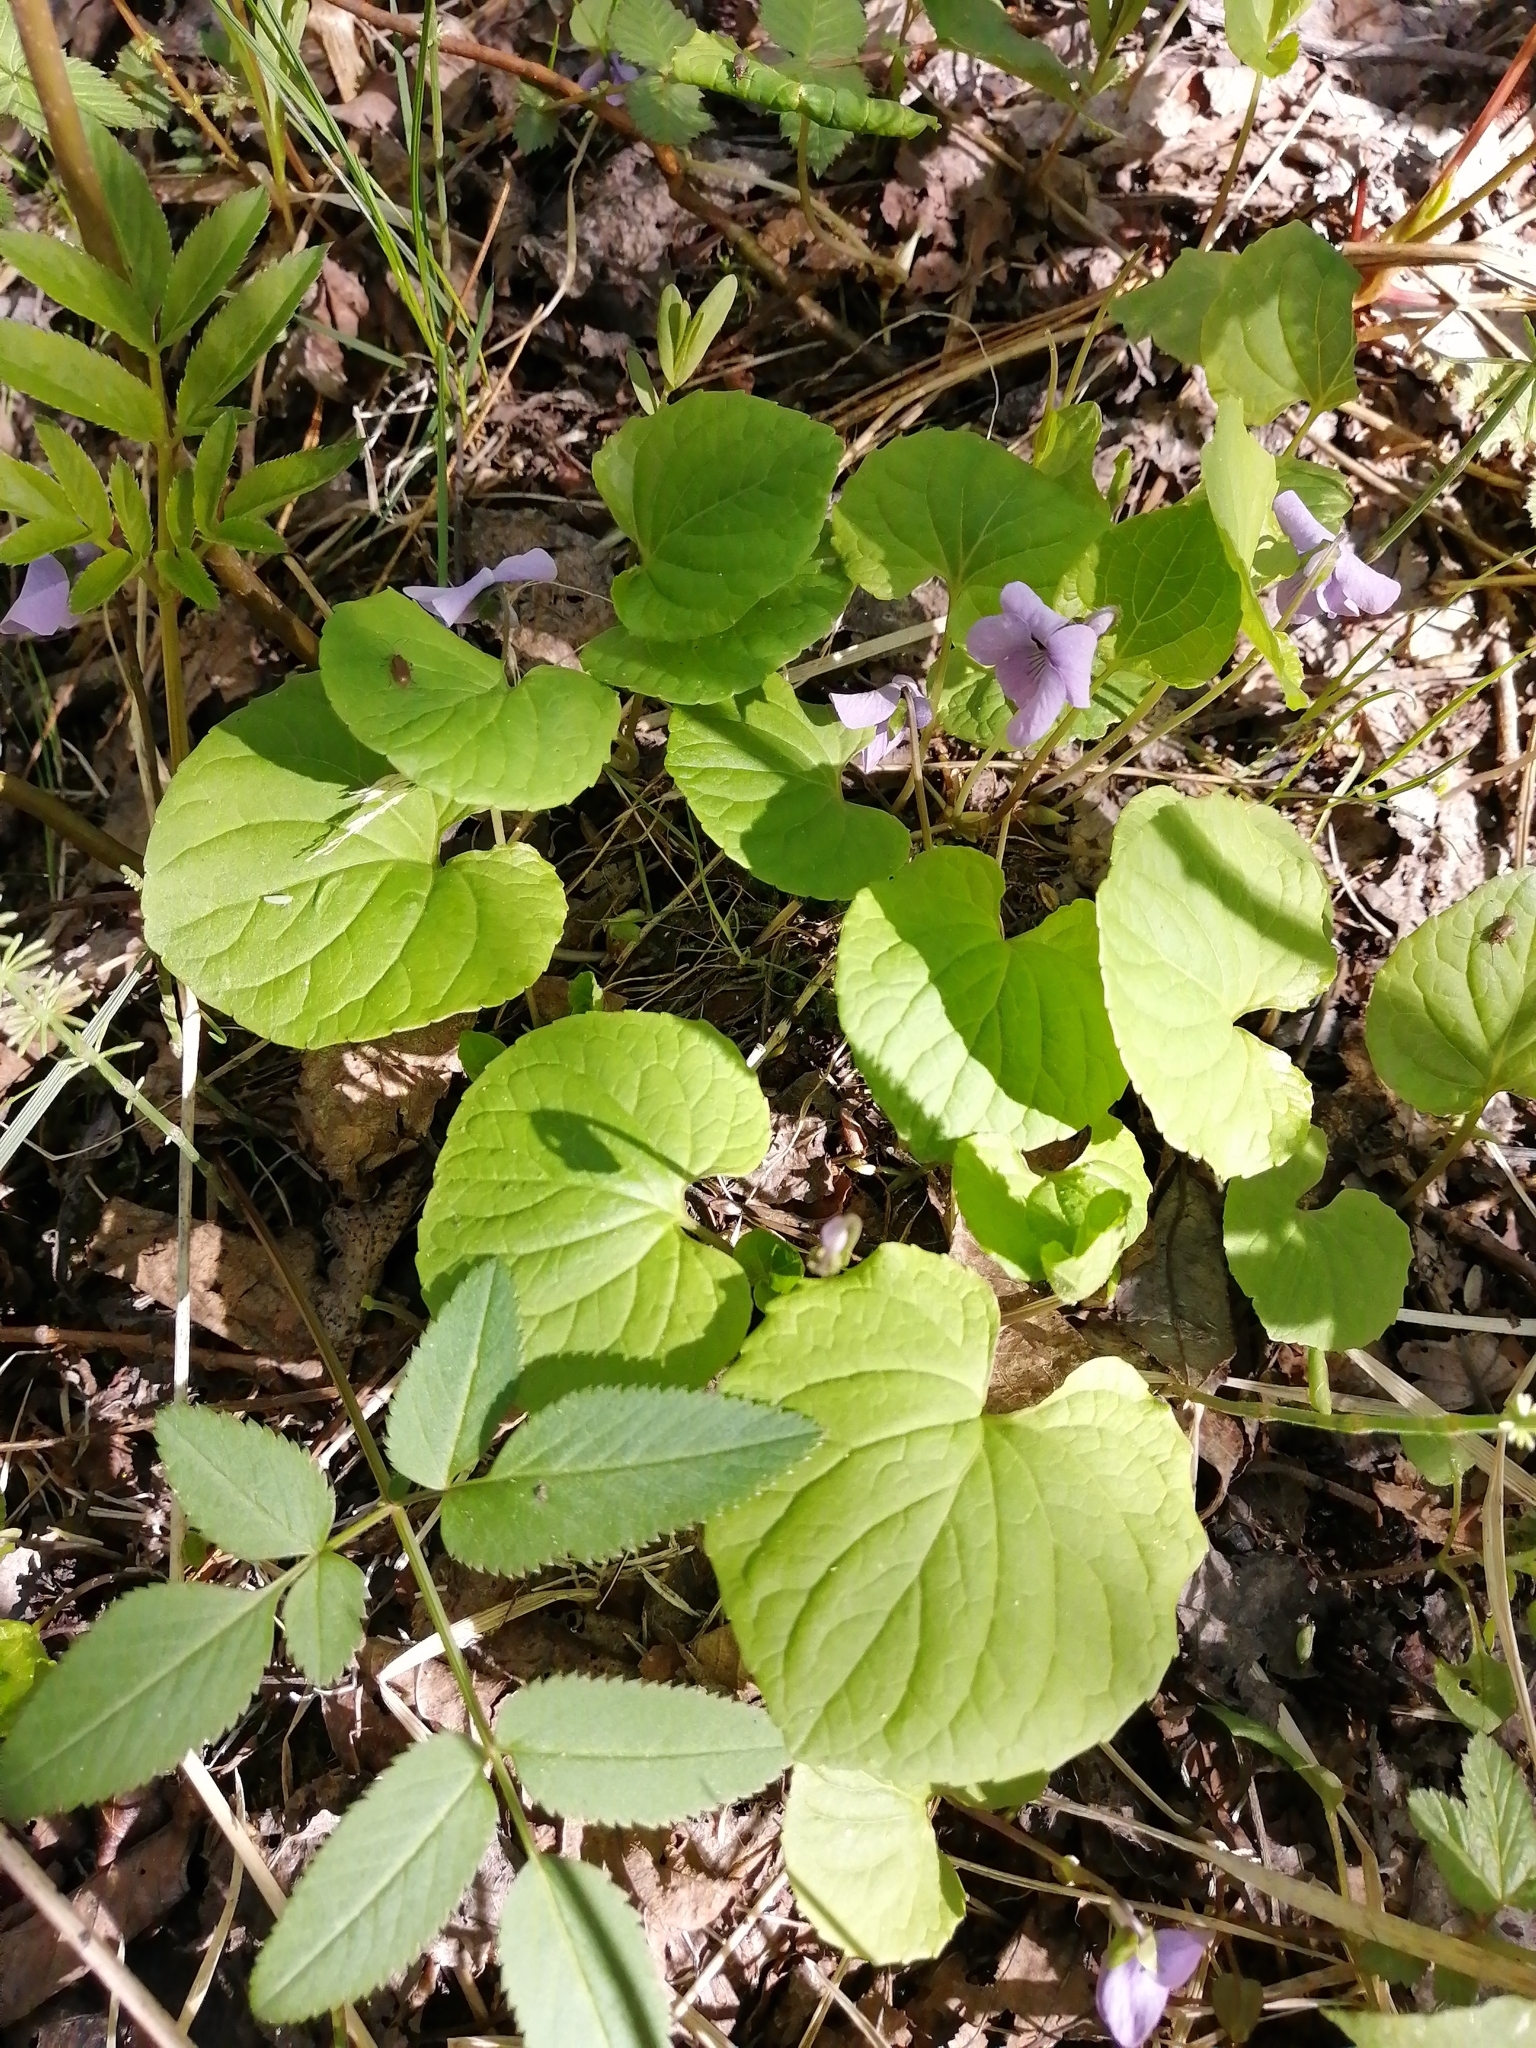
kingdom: Plantae
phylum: Tracheophyta
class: Magnoliopsida
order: Malpighiales
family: Violaceae
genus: Viola
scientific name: Viola epipsila
